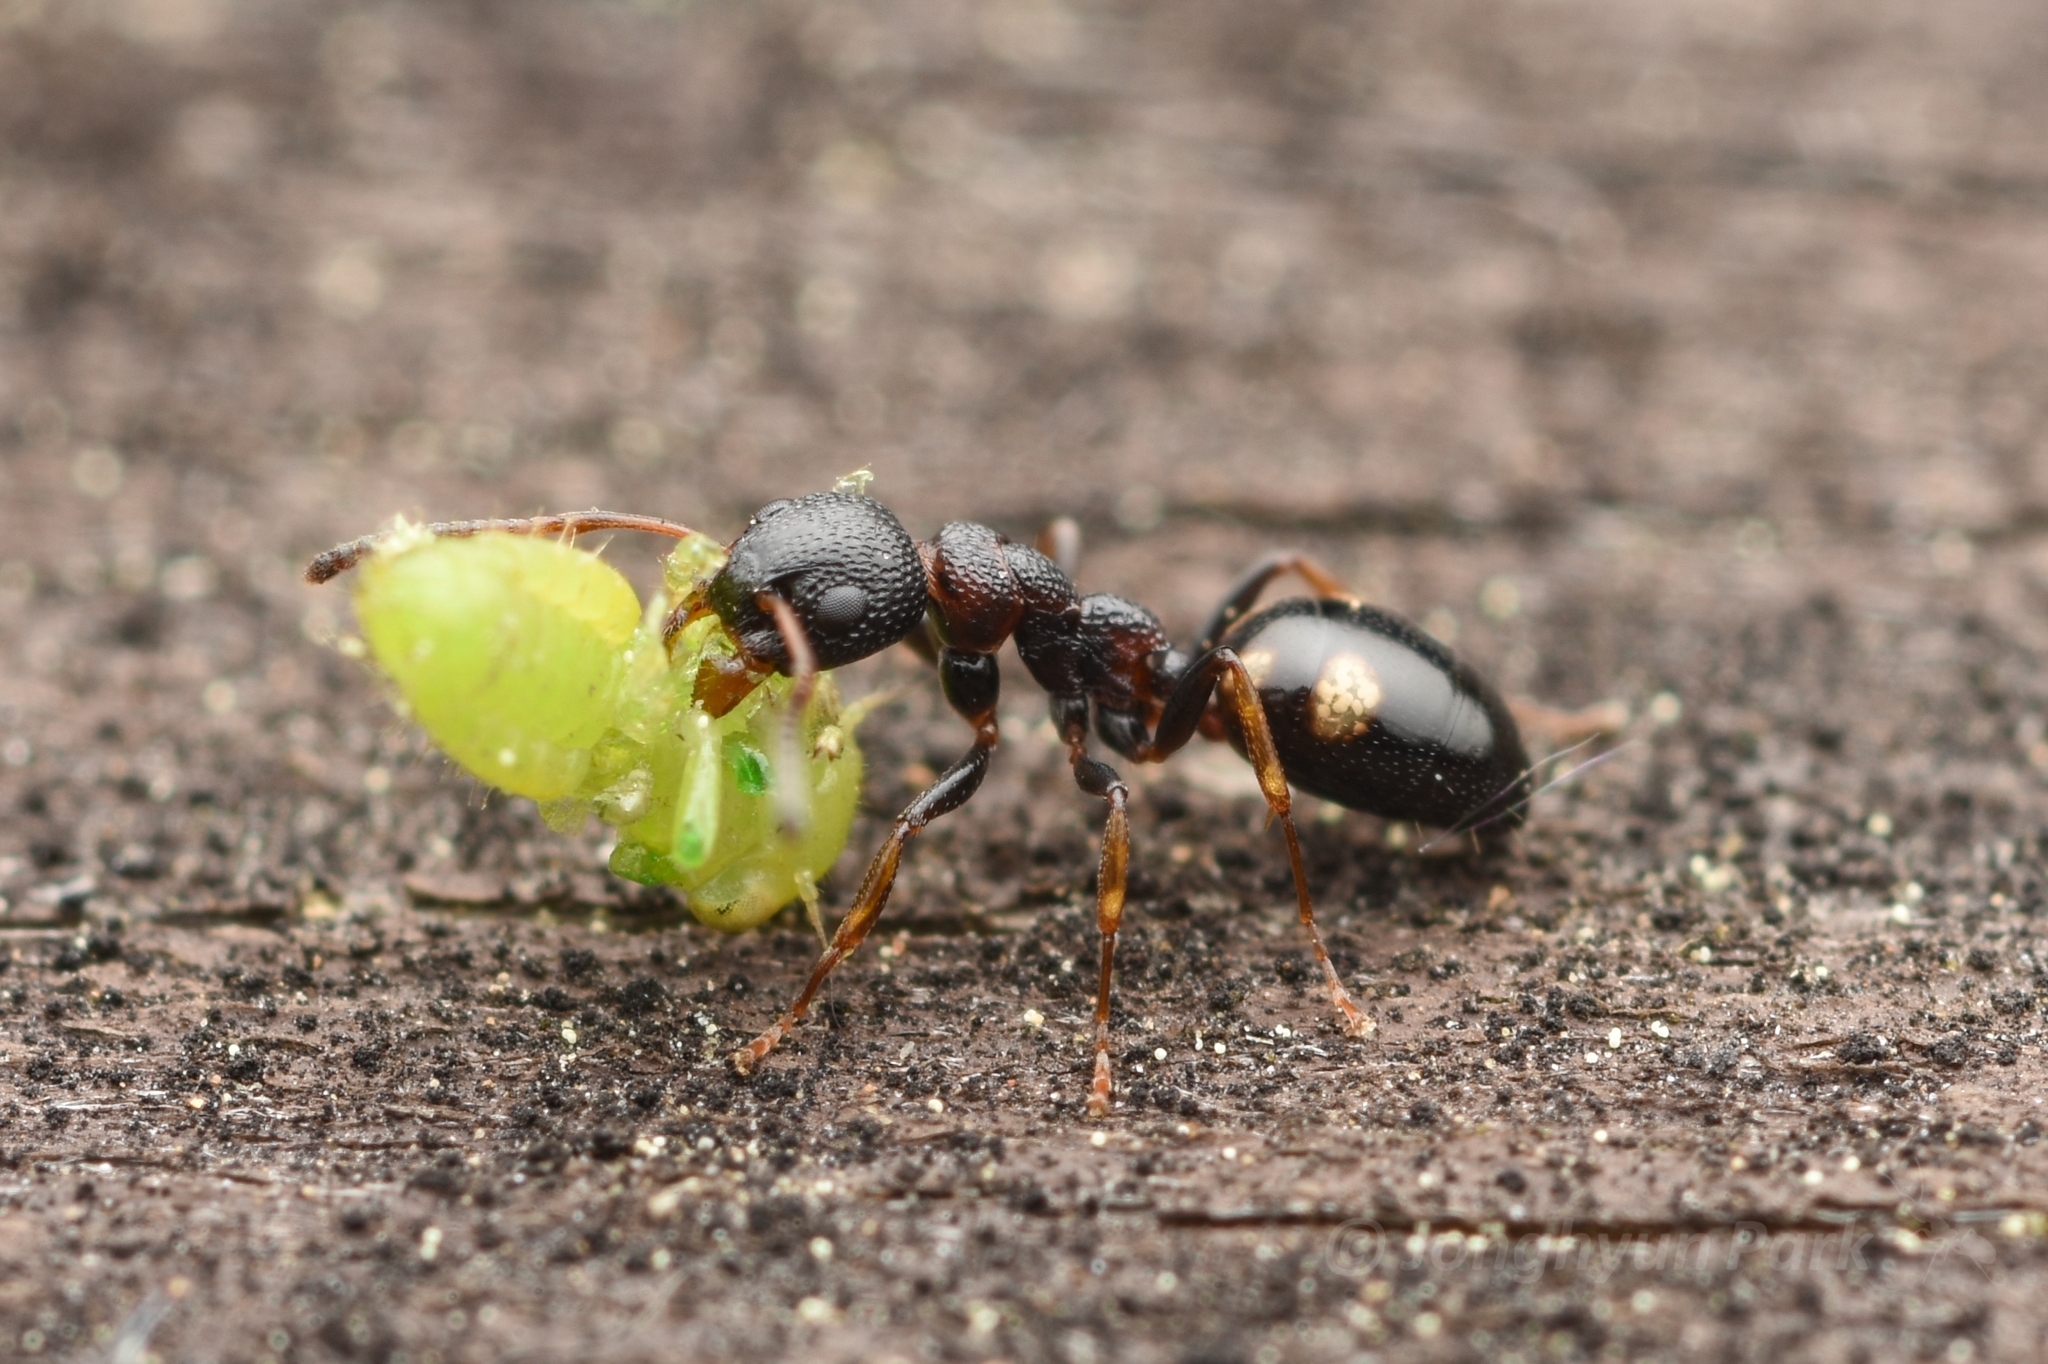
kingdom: Animalia
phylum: Arthropoda
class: Insecta
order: Hymenoptera
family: Formicidae
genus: Dolichoderus
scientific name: Dolichoderus sibiricus
